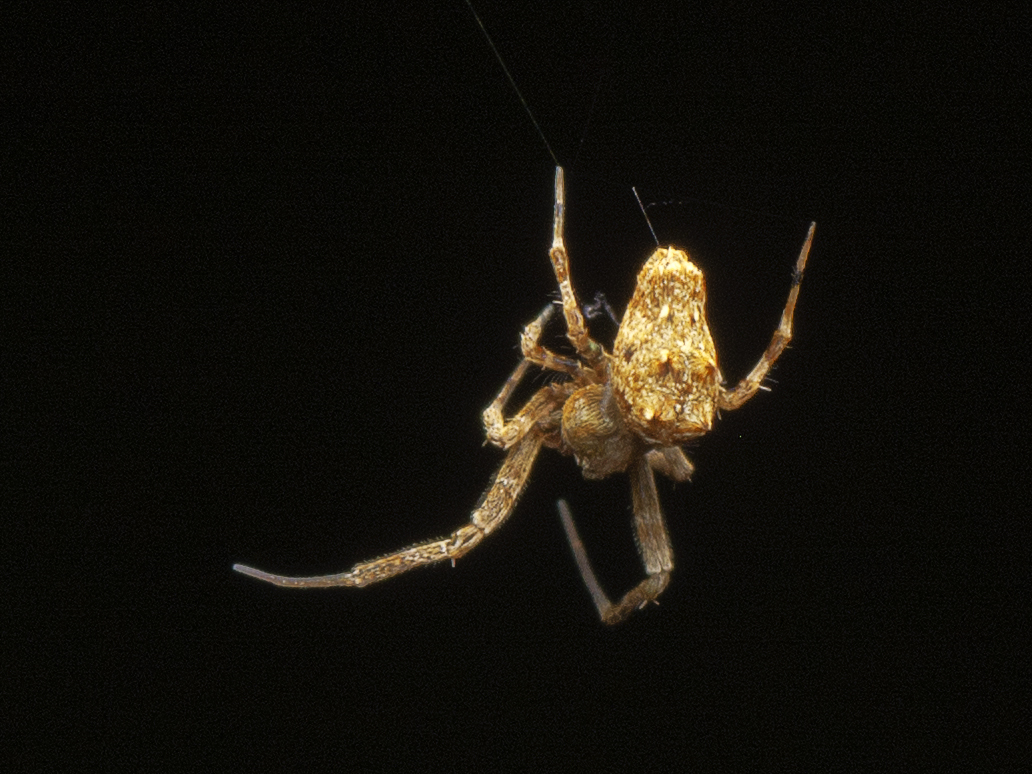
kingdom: Animalia
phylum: Arthropoda
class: Arachnida
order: Araneae
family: Uloboridae
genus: Philoponella
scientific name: Philoponella congregabilis
